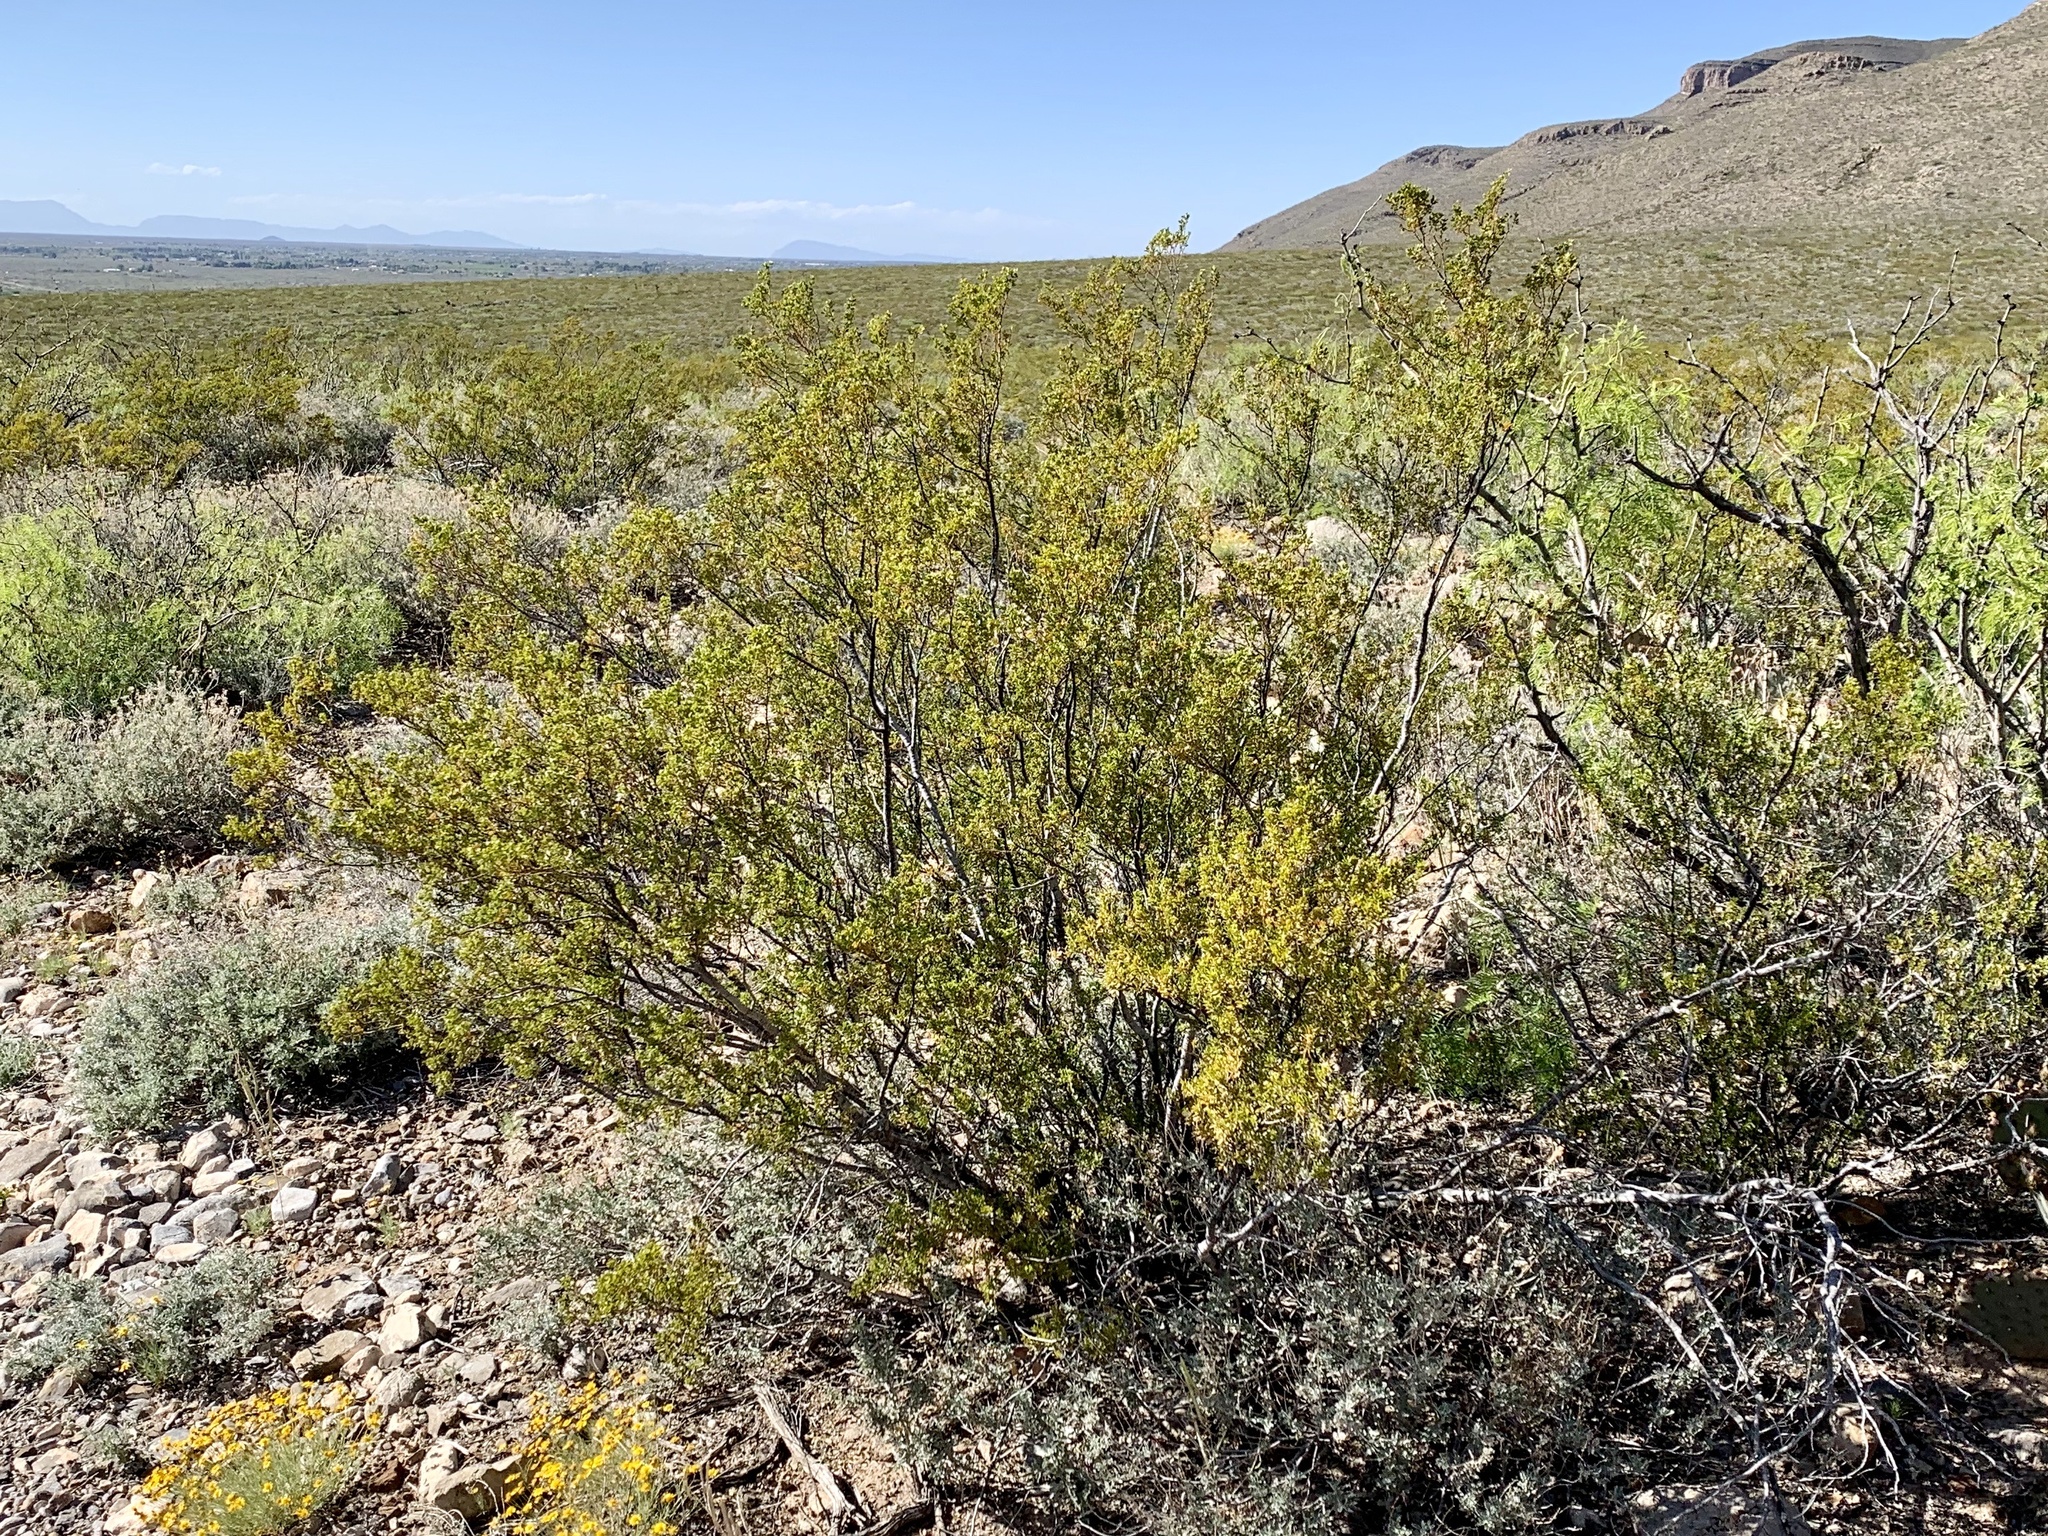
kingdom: Plantae
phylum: Tracheophyta
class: Magnoliopsida
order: Zygophyllales
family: Zygophyllaceae
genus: Larrea
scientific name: Larrea tridentata
